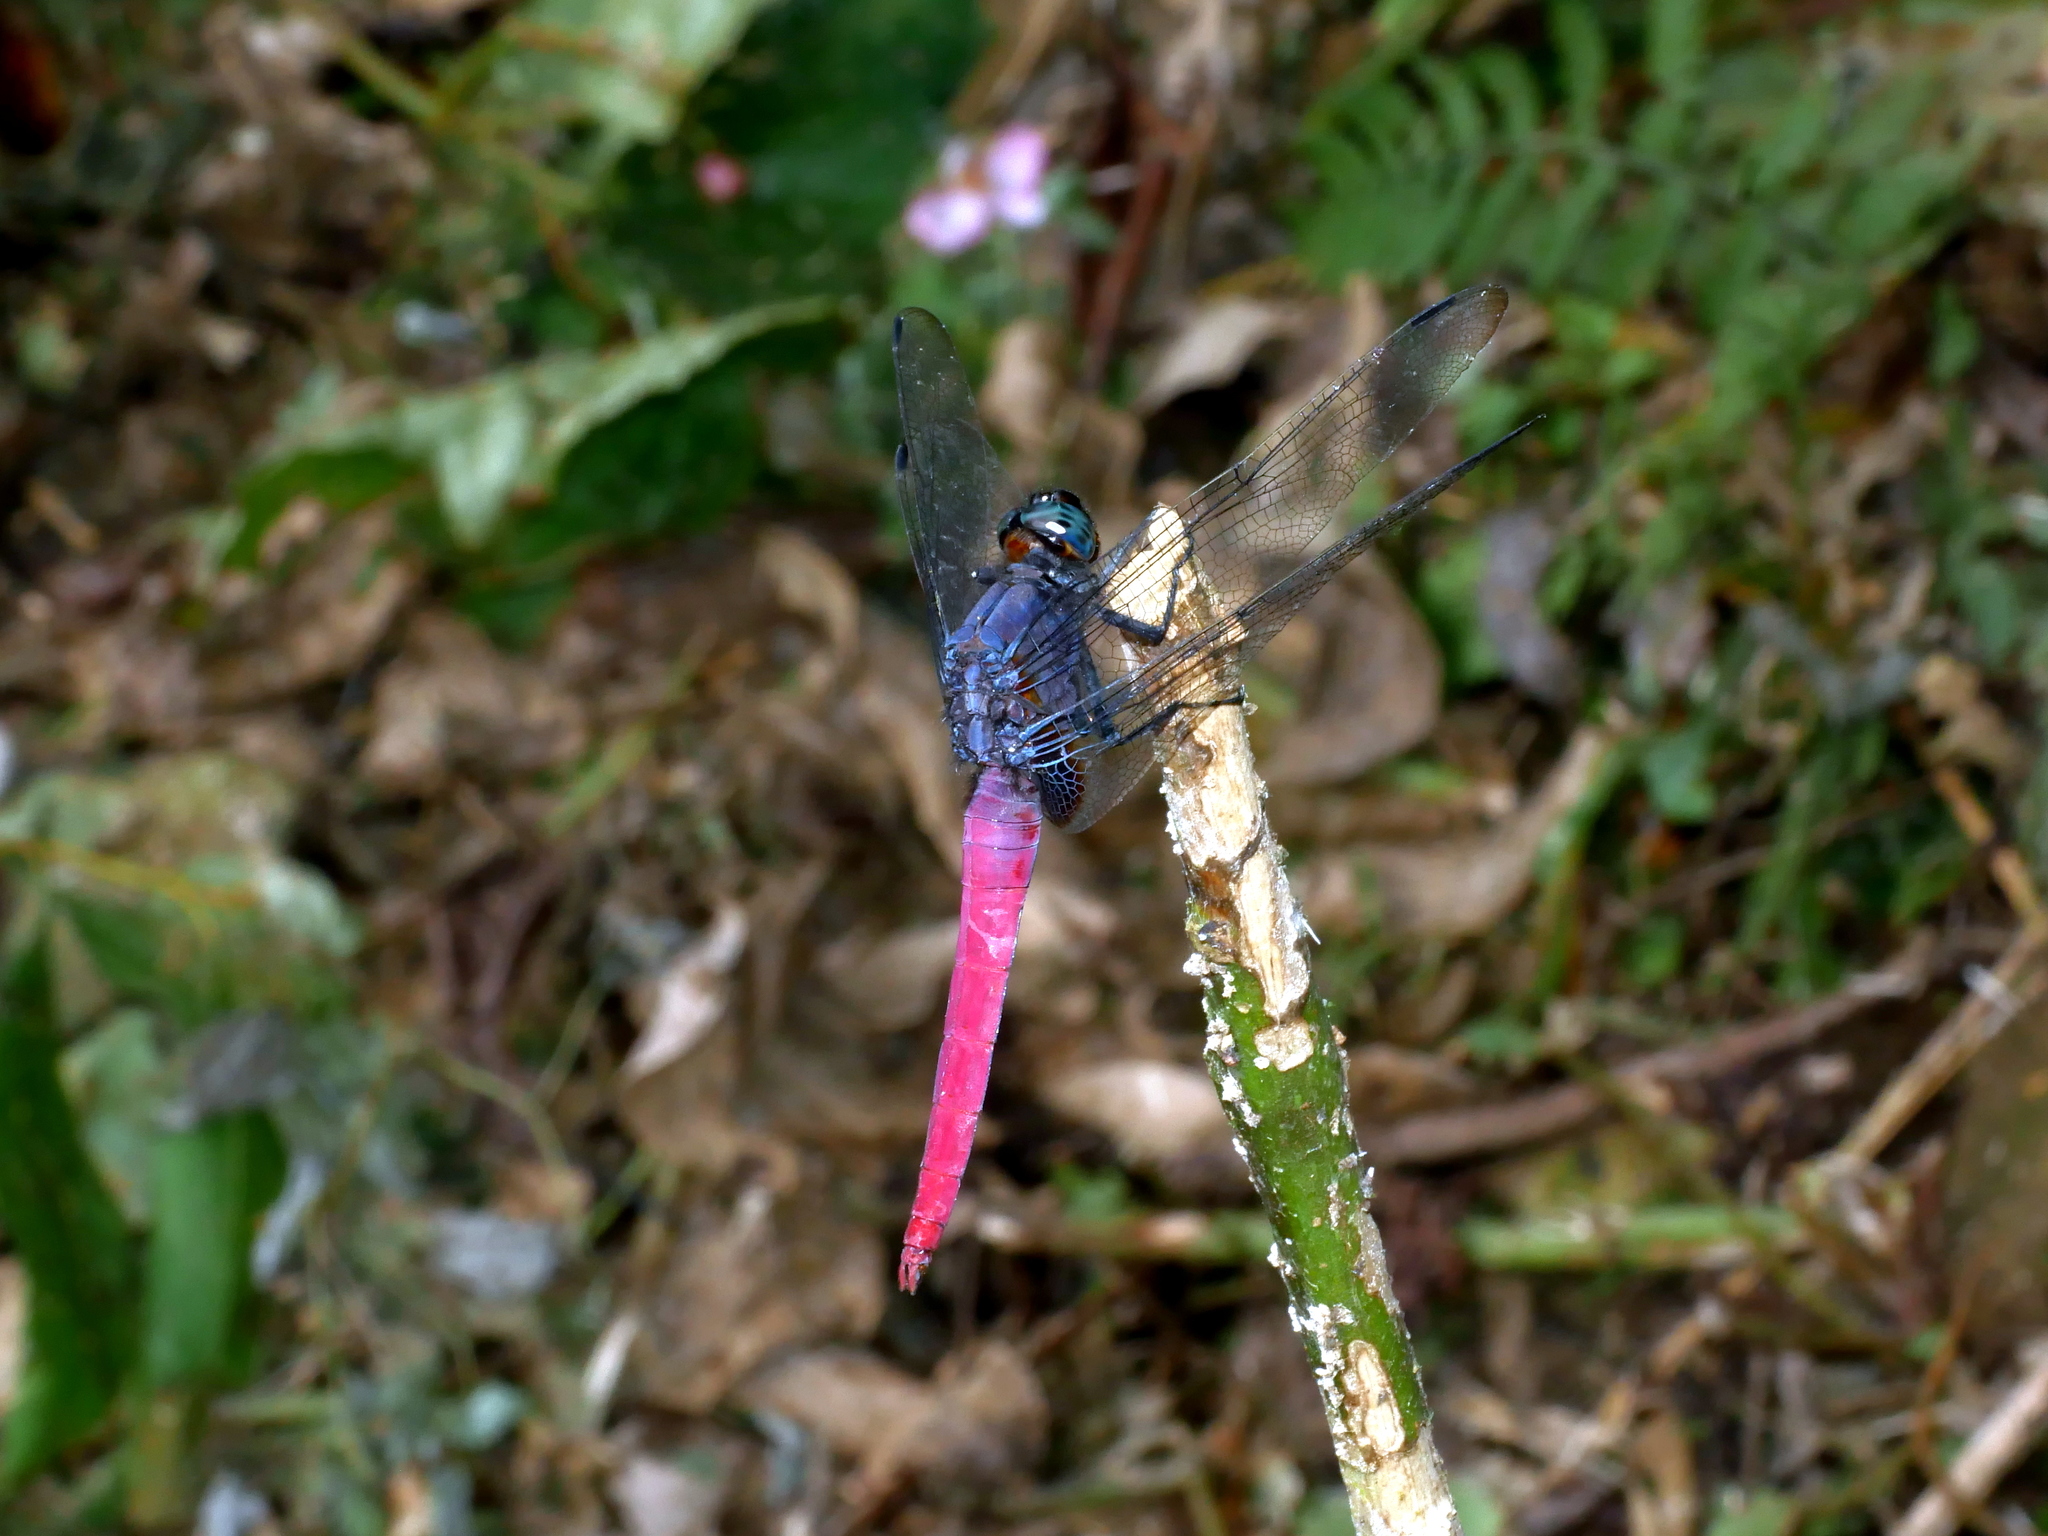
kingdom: Animalia
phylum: Arthropoda
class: Insecta
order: Odonata
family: Libellulidae
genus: Orthetrum
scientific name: Orthetrum pruinosum
